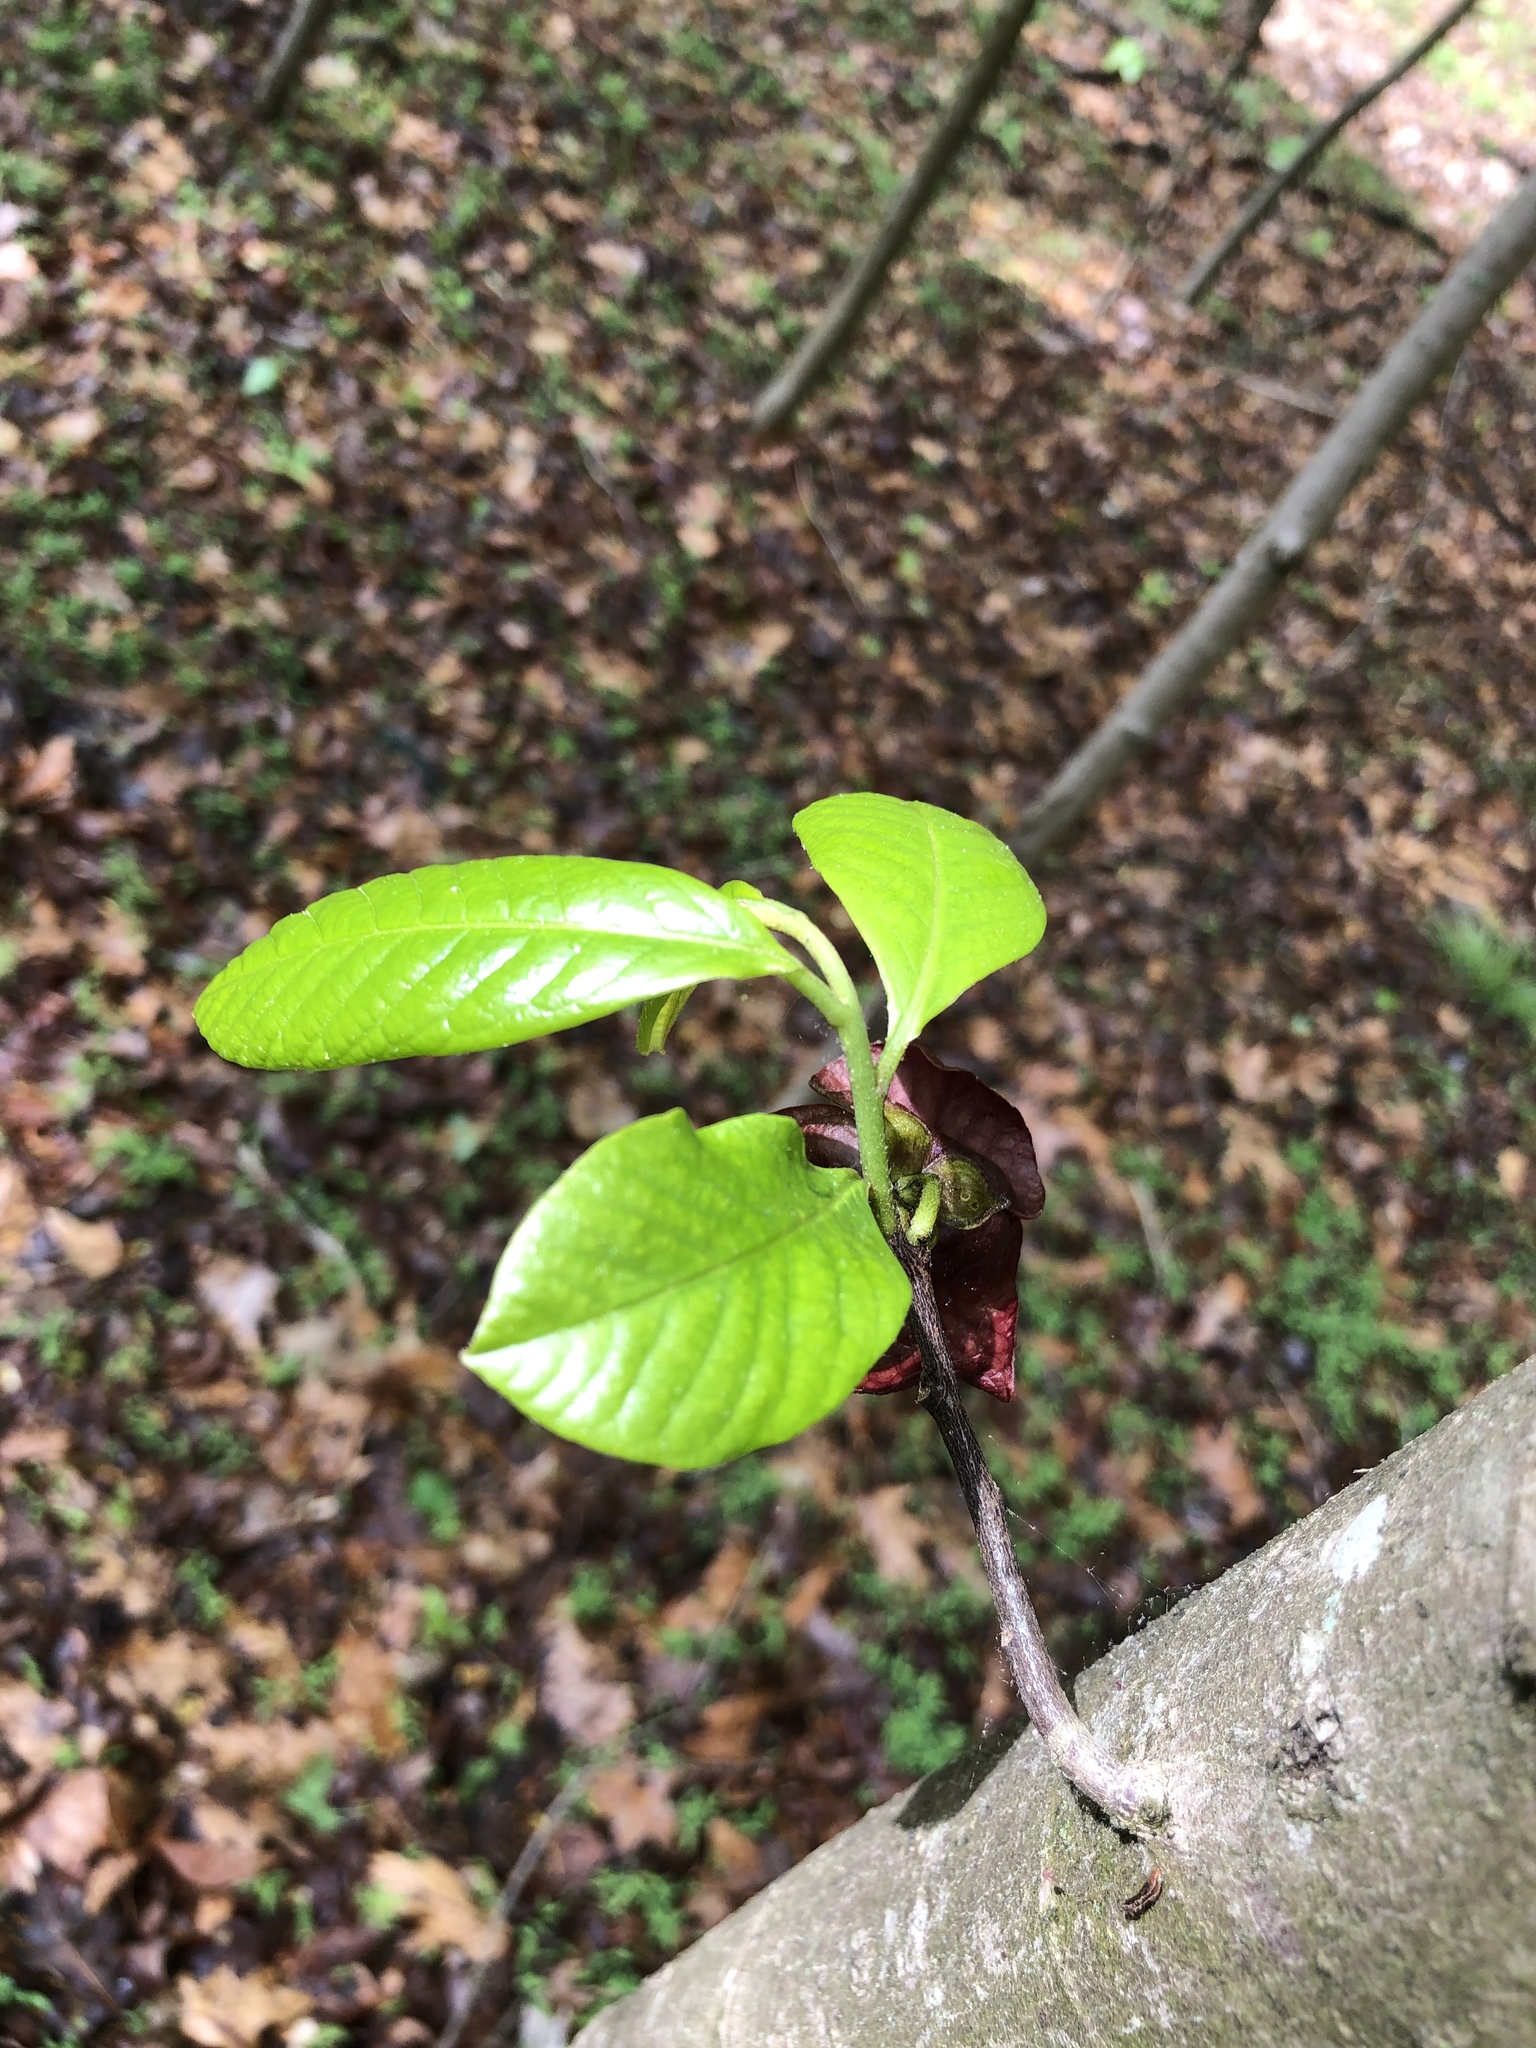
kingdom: Plantae
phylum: Tracheophyta
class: Magnoliopsida
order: Magnoliales
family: Annonaceae
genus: Asimina
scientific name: Asimina triloba
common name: Dog-banana
